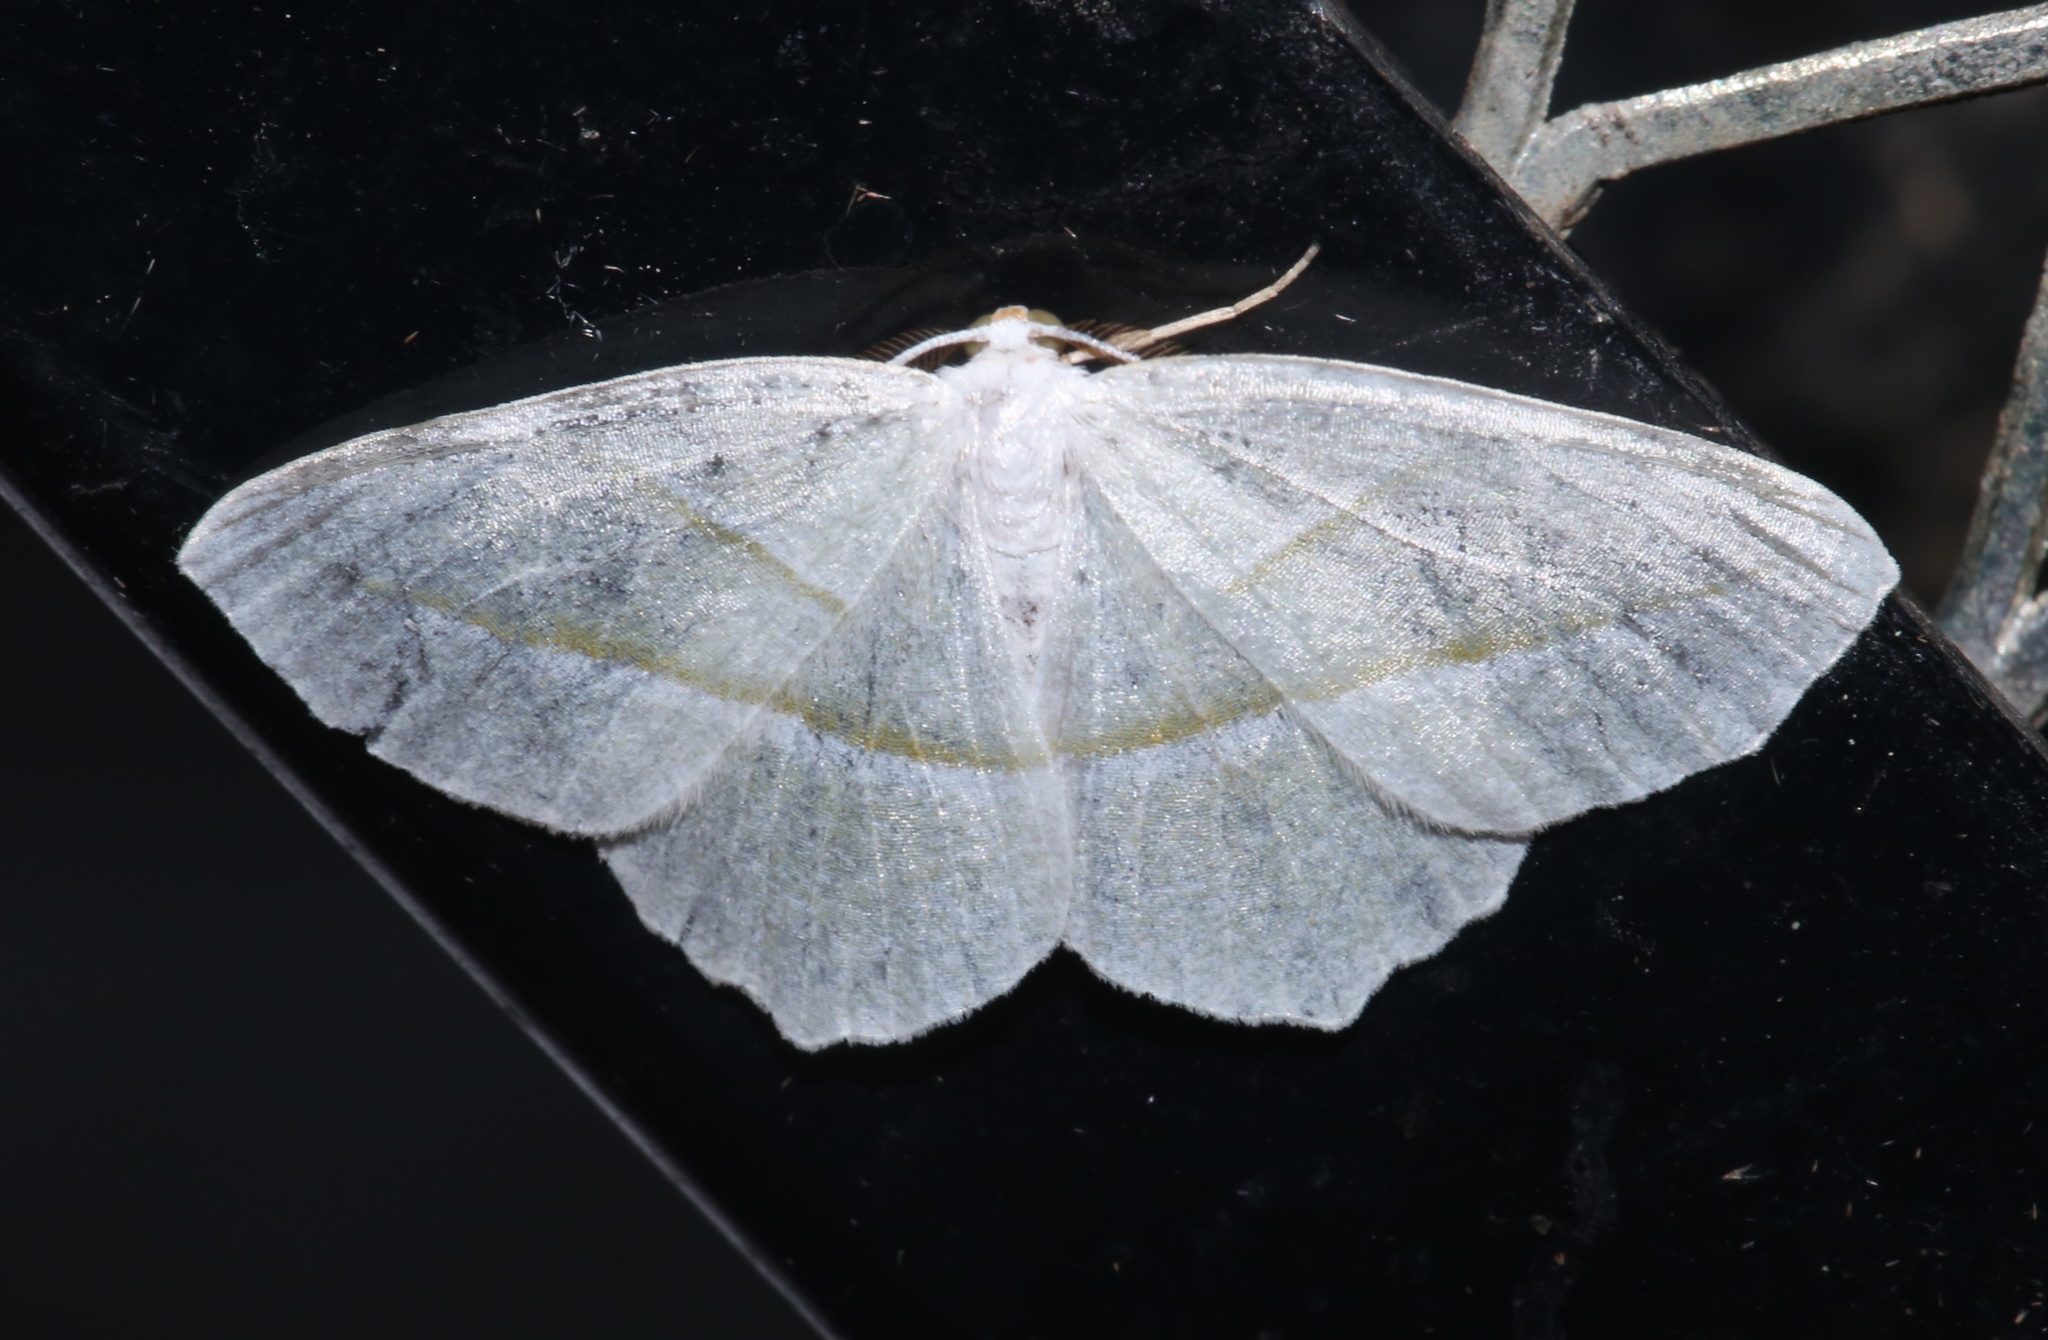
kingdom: Animalia
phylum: Arthropoda
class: Insecta
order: Lepidoptera
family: Geometridae
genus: Campaea
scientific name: Campaea perlata
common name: Fringed looper
